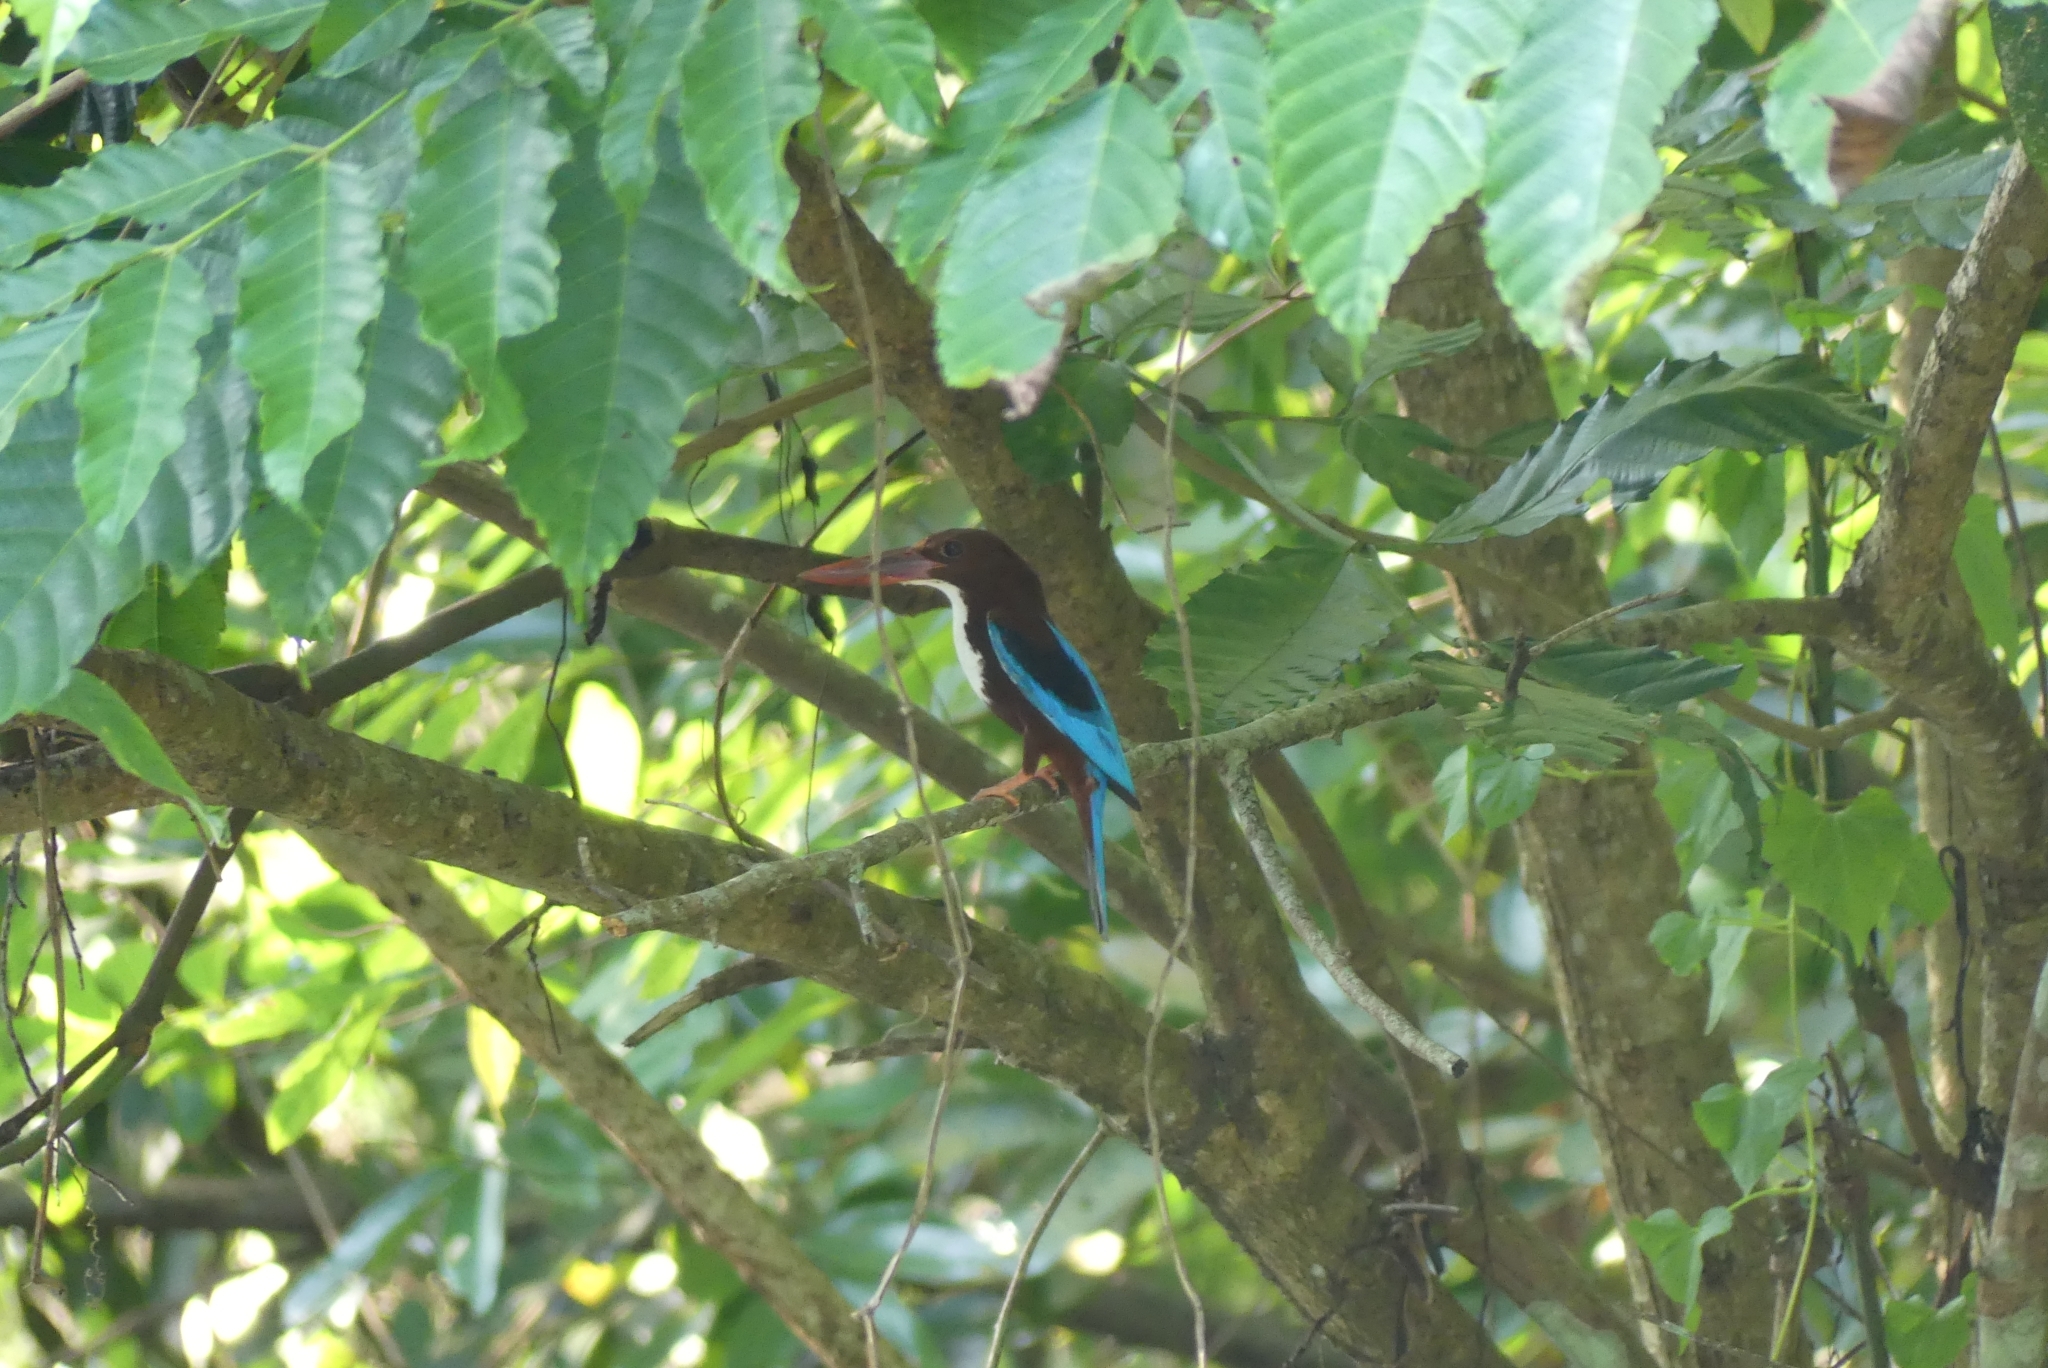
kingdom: Animalia
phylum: Chordata
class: Aves
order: Coraciiformes
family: Alcedinidae
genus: Halcyon
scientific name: Halcyon smyrnensis
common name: White-throated kingfisher
